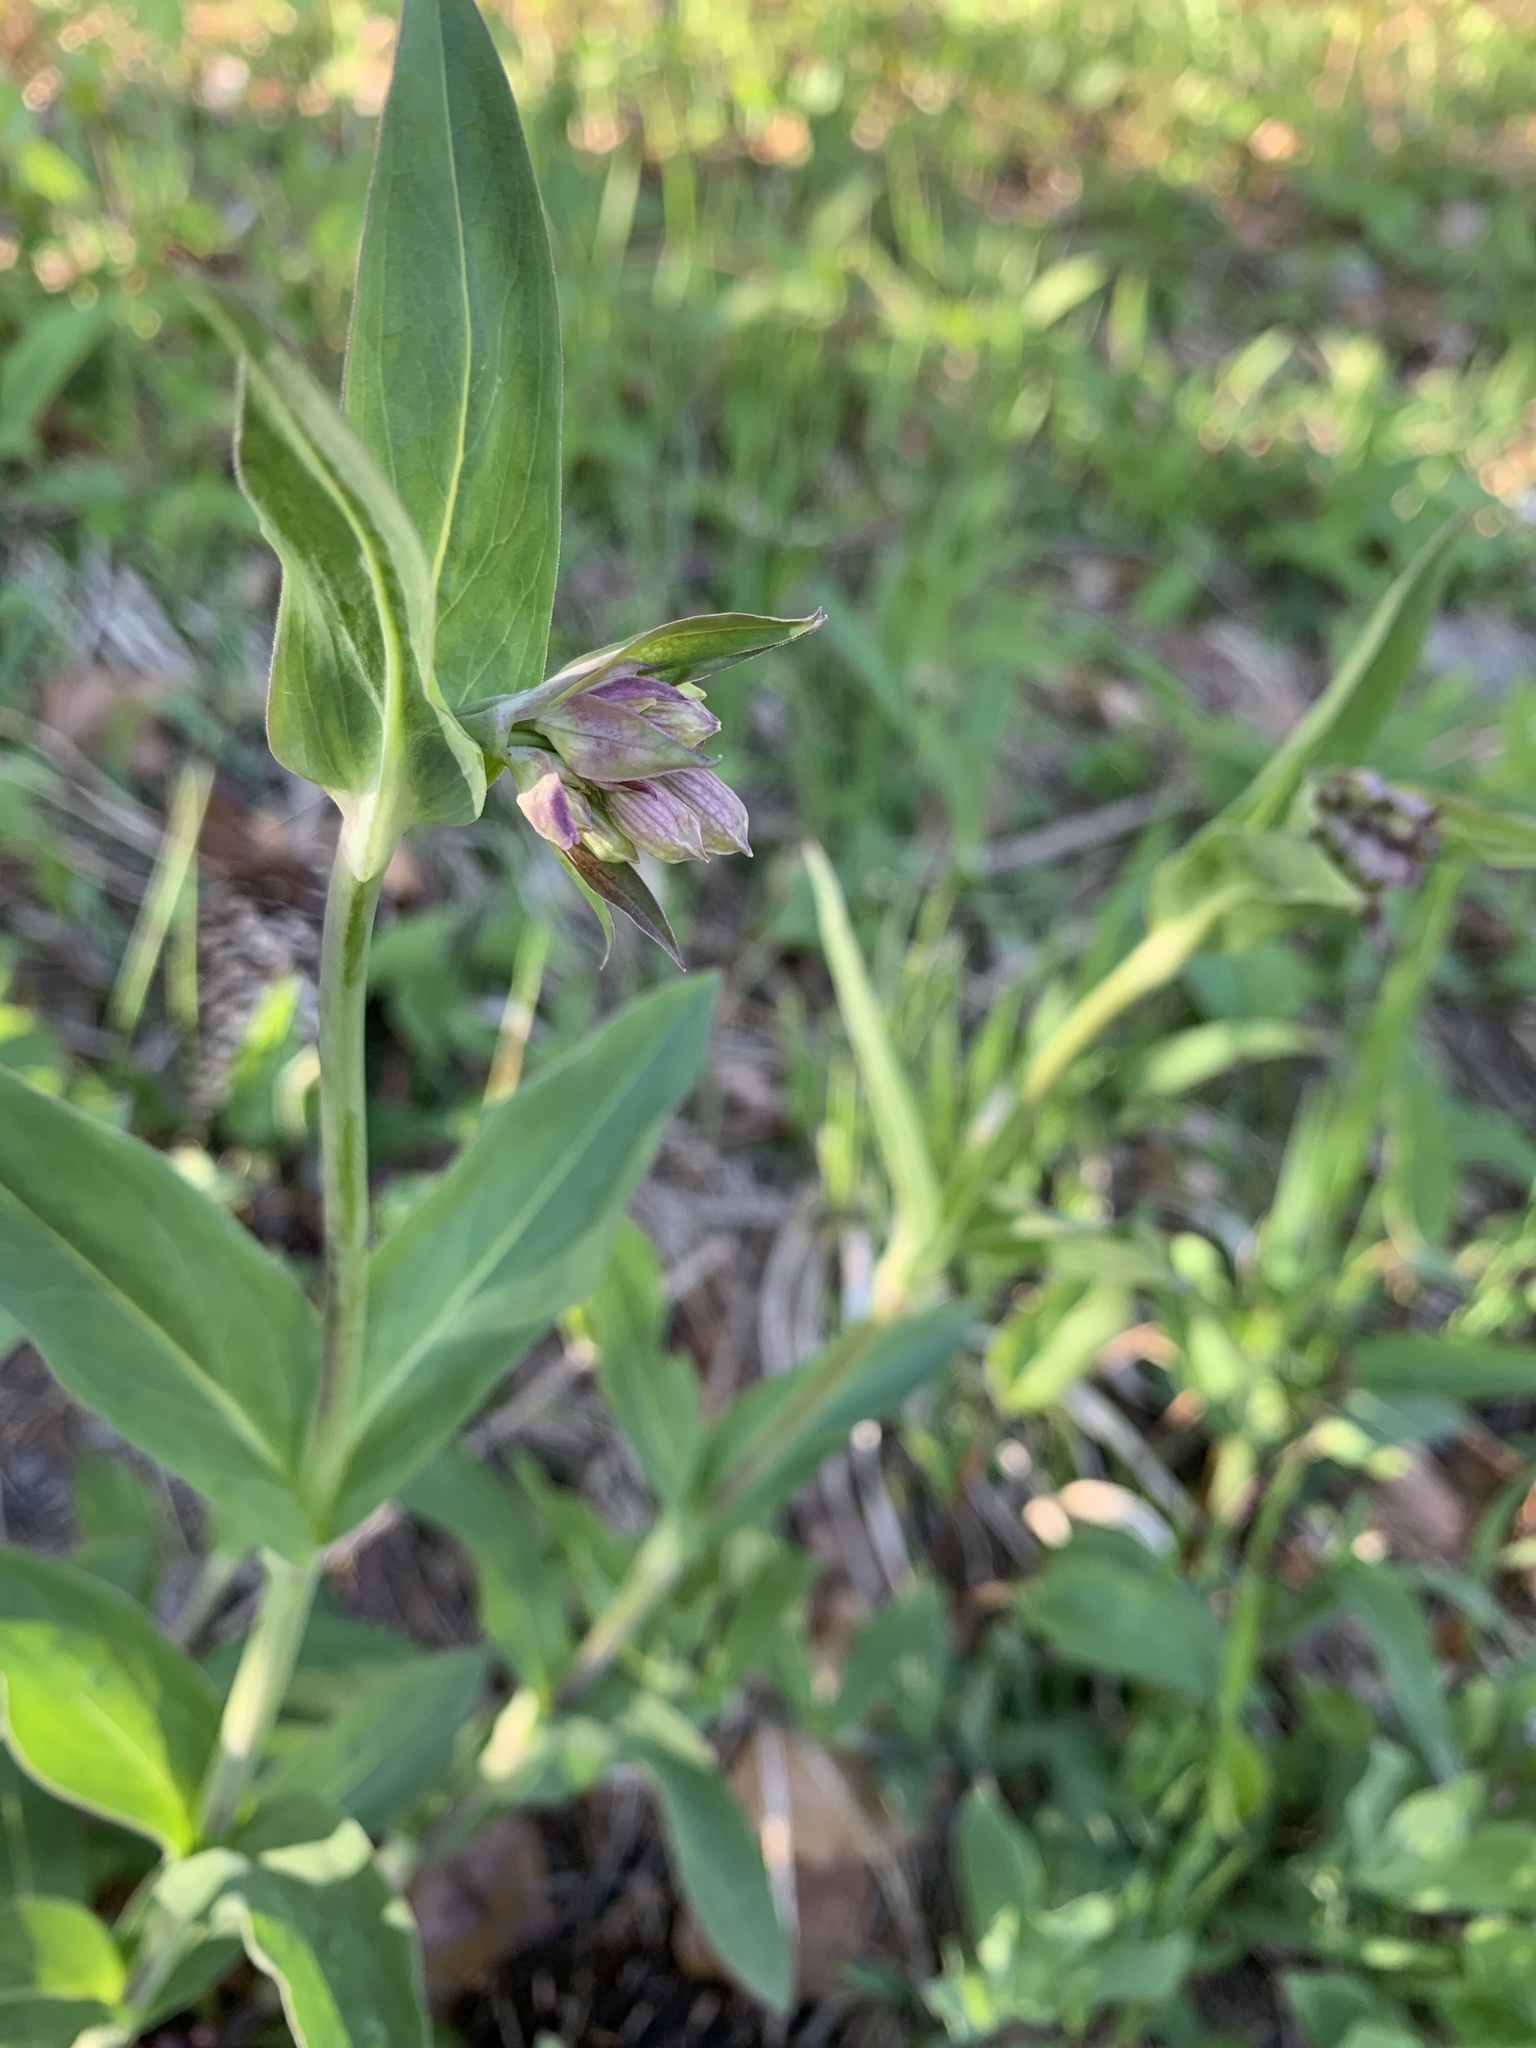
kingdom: Plantae
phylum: Tracheophyta
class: Magnoliopsida
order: Caryophyllales
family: Caryophyllaceae
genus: Silene
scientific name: Silene vulgaris
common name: Bladder campion
